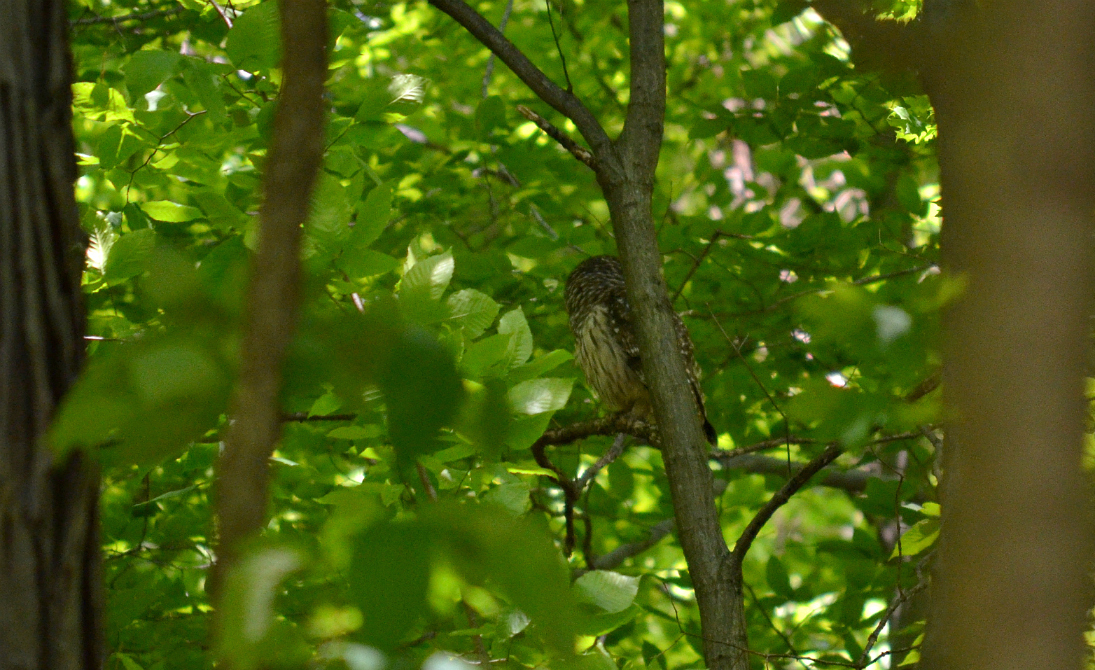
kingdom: Animalia
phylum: Chordata
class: Aves
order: Strigiformes
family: Strigidae
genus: Strix
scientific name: Strix varia
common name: Barred owl
